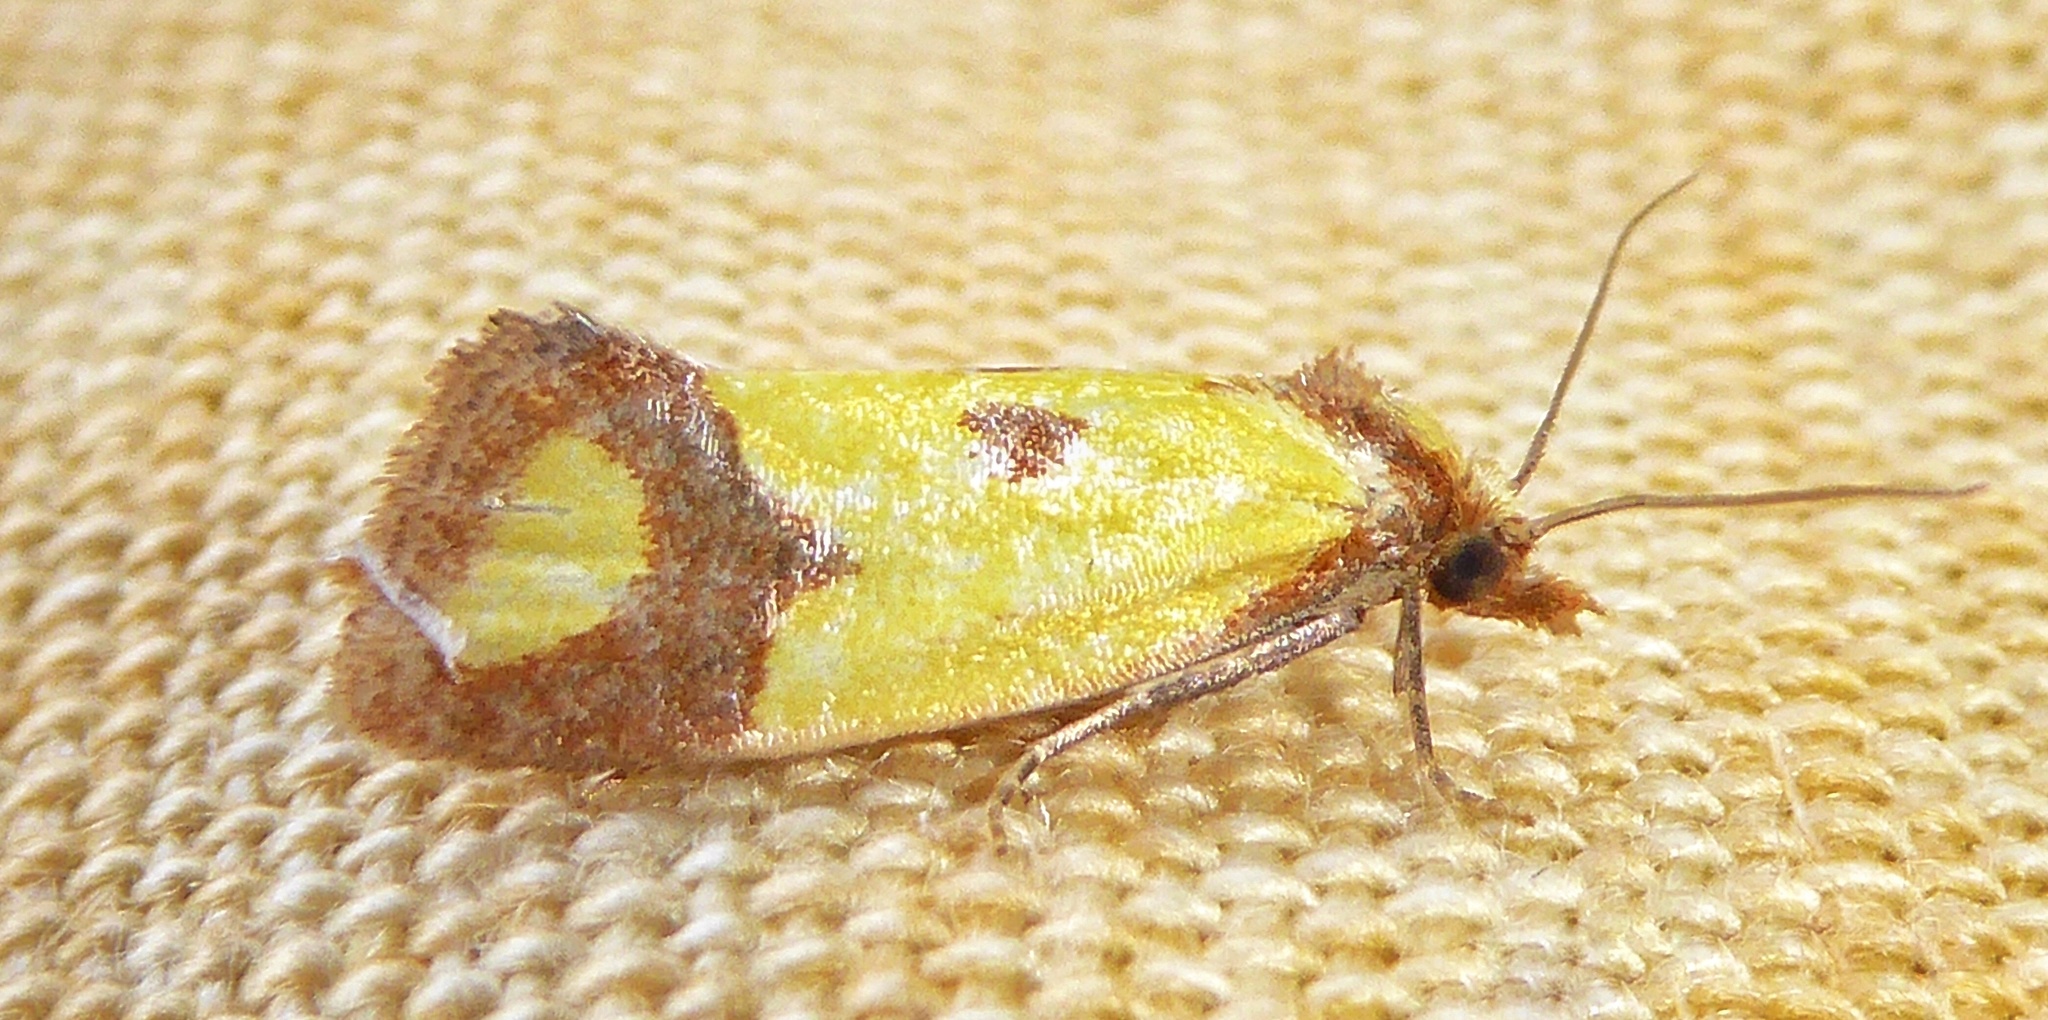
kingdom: Animalia
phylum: Arthropoda
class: Insecta
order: Lepidoptera
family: Tortricidae
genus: Agapeta
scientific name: Agapeta zoegana
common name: Sulfur knapweed root moth
